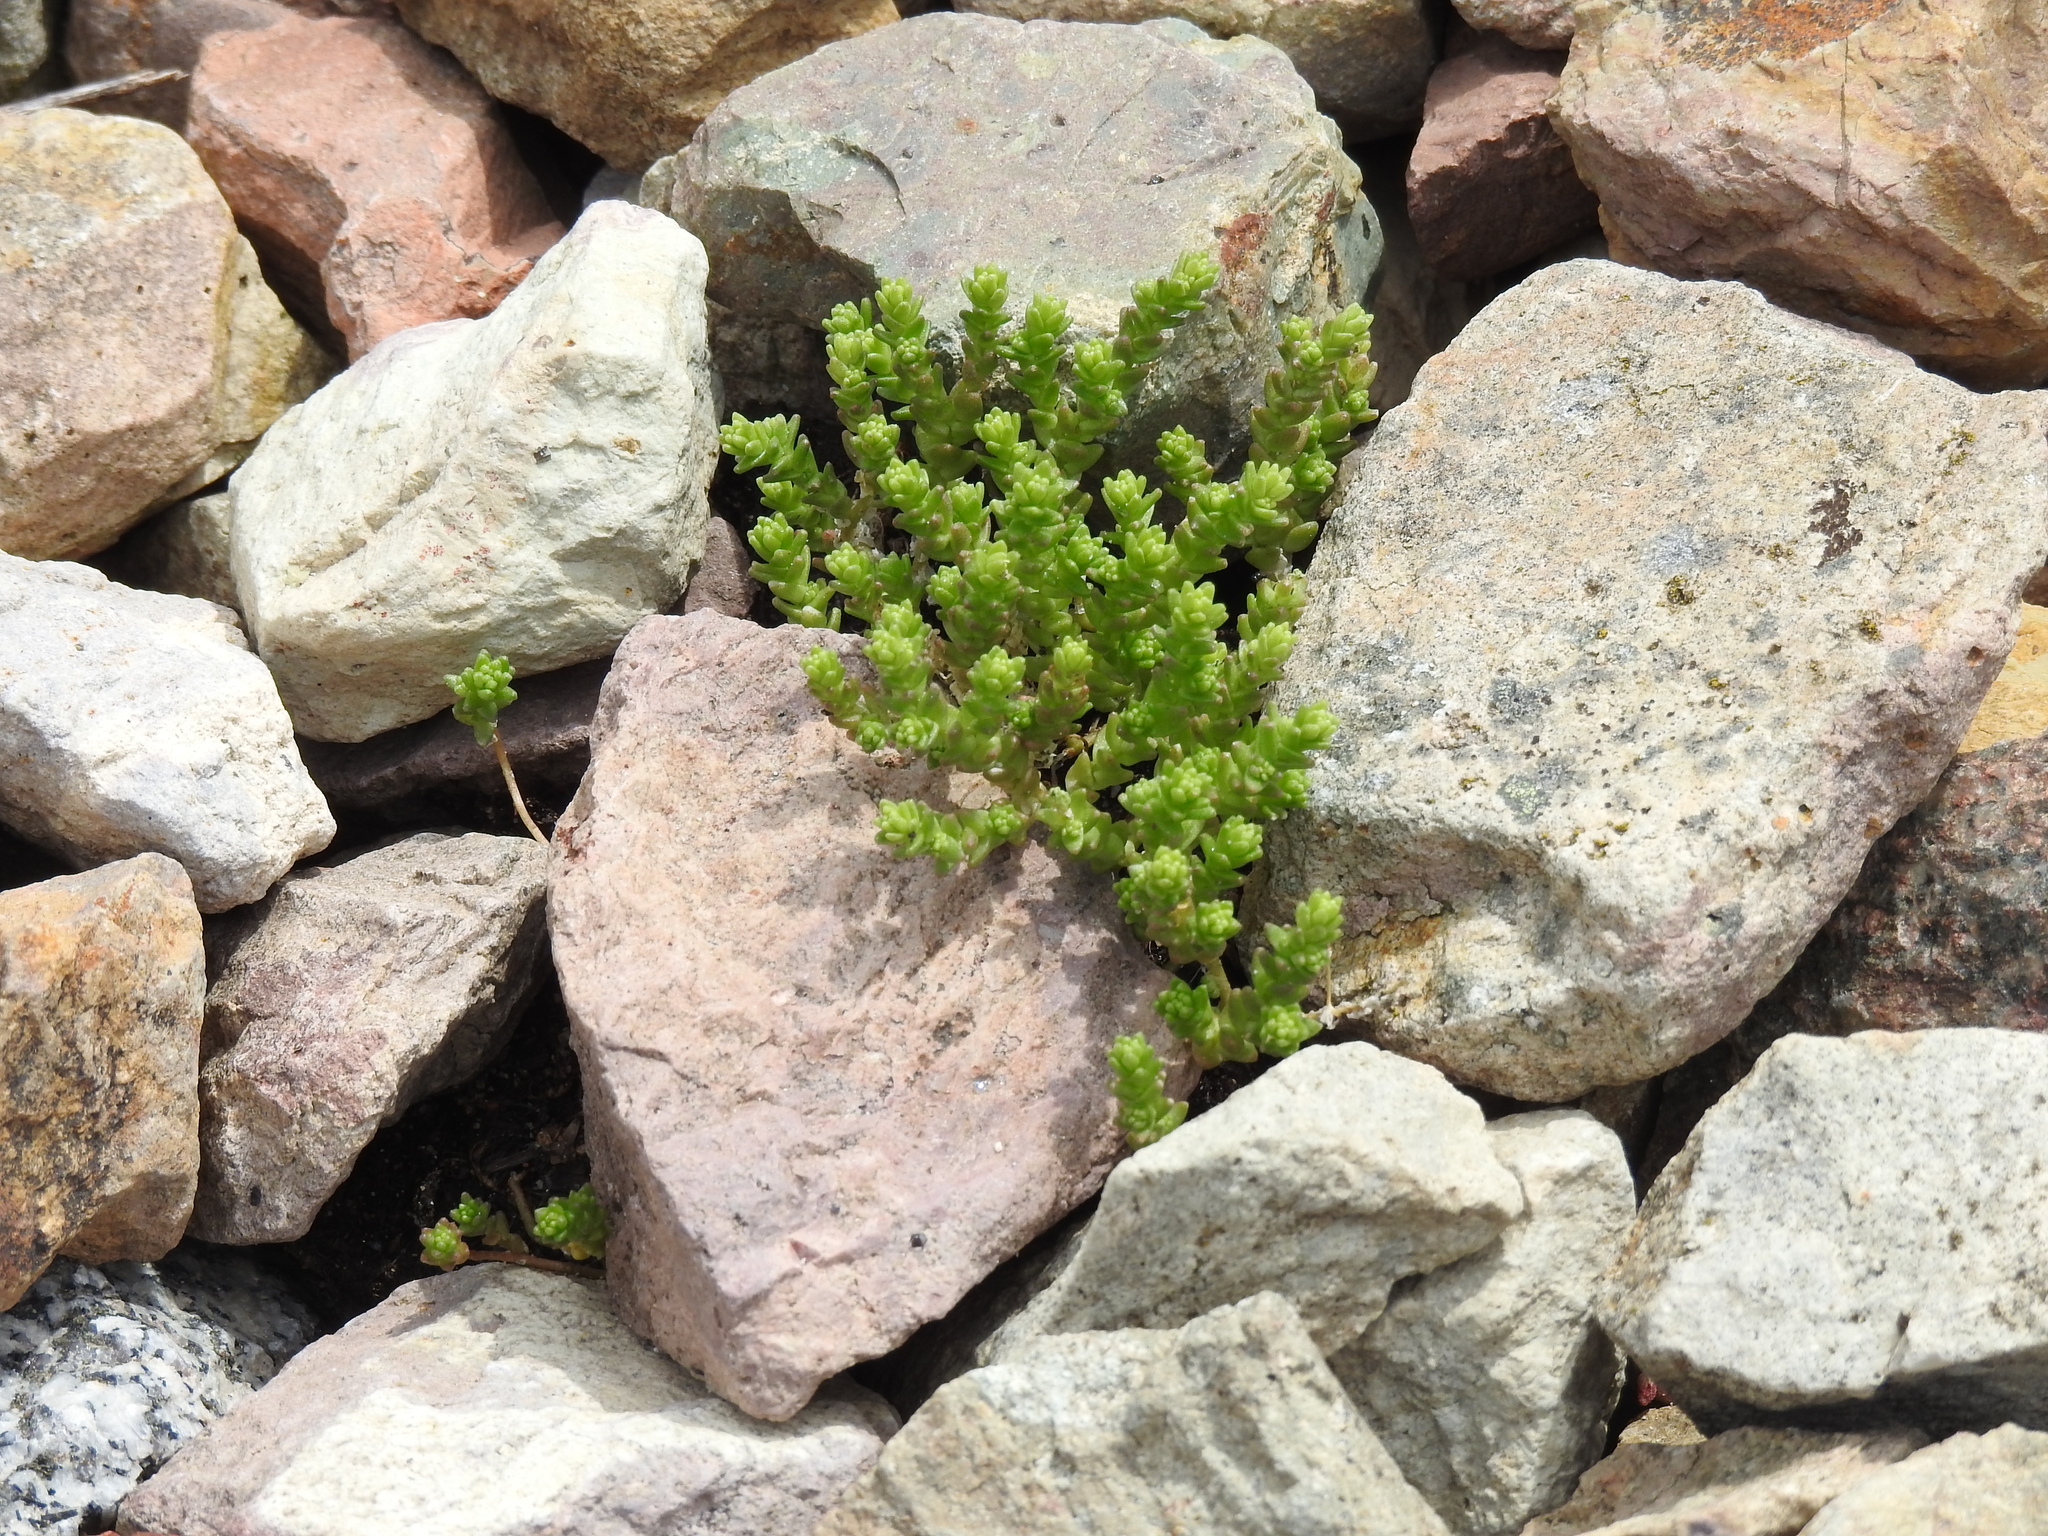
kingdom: Plantae
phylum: Tracheophyta
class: Magnoliopsida
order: Saxifragales
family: Crassulaceae
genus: Sedum
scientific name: Sedum acre
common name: Biting stonecrop
